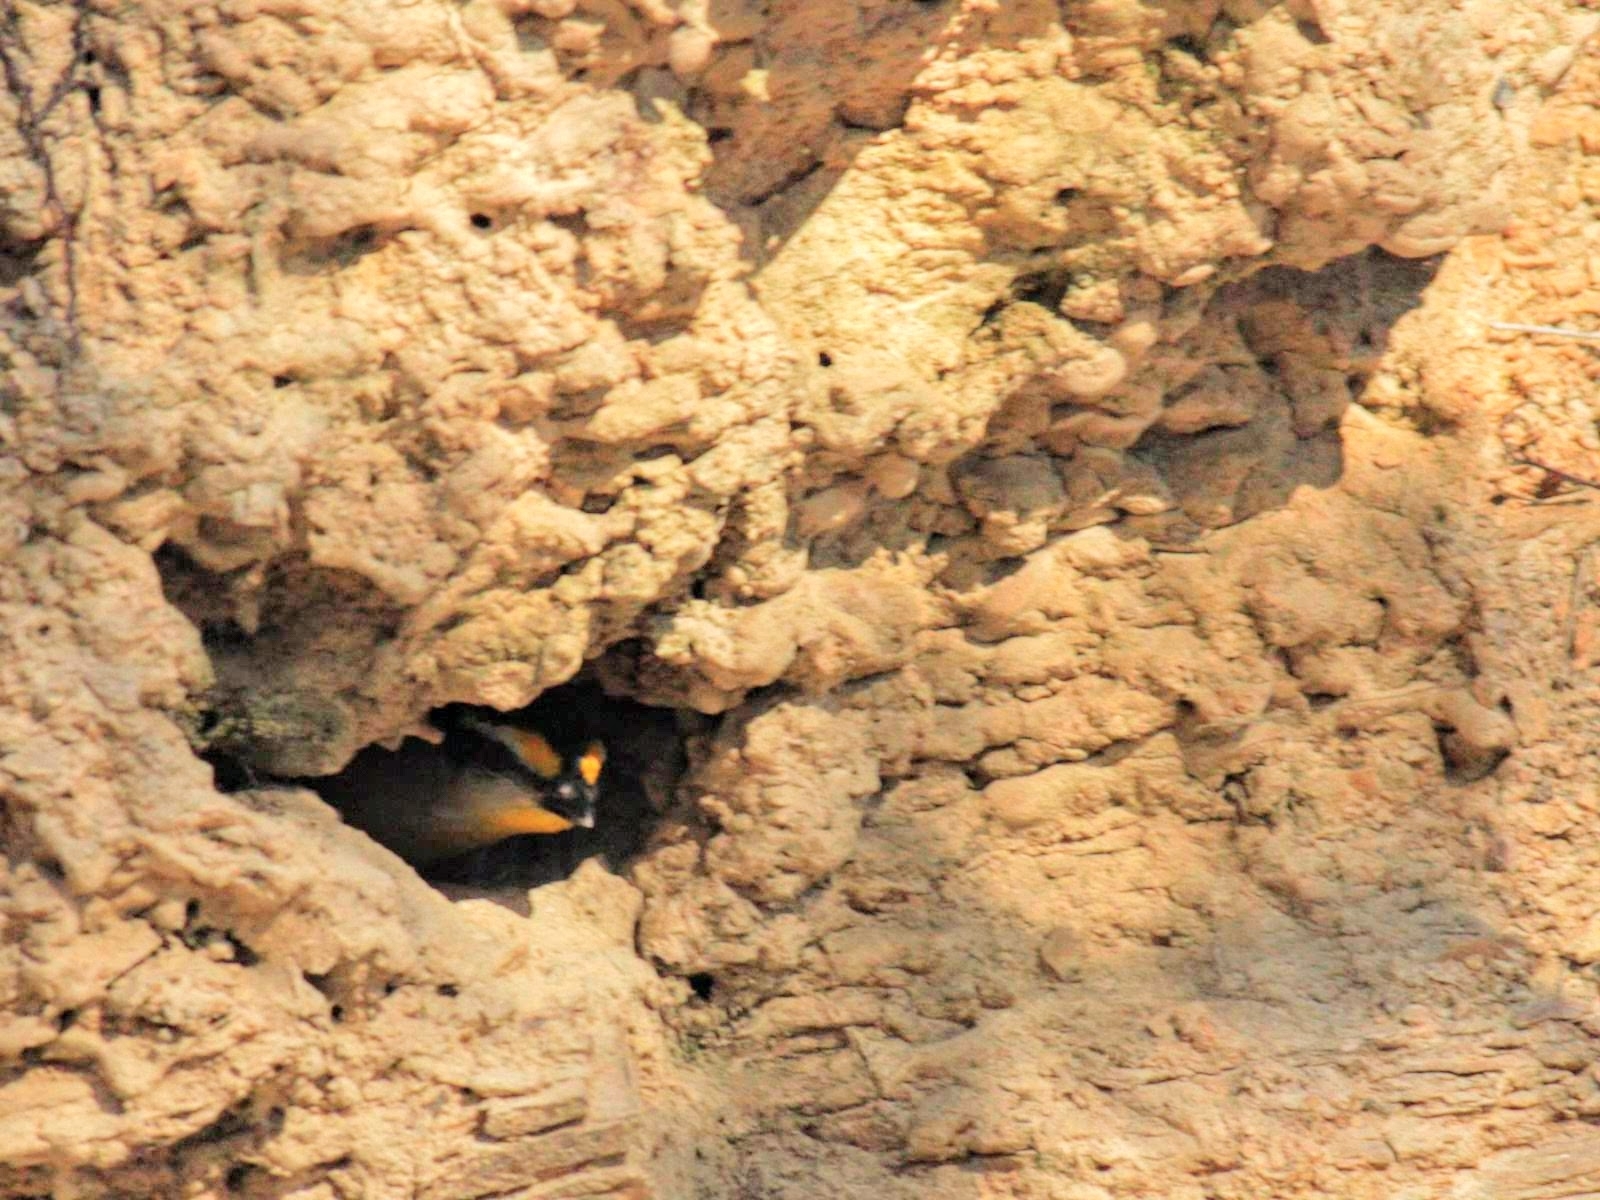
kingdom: Animalia
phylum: Chordata
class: Aves
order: Passeriformes
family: Pardalotidae
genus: Pardalotus
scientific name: Pardalotus striatus
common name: Striated pardalote
